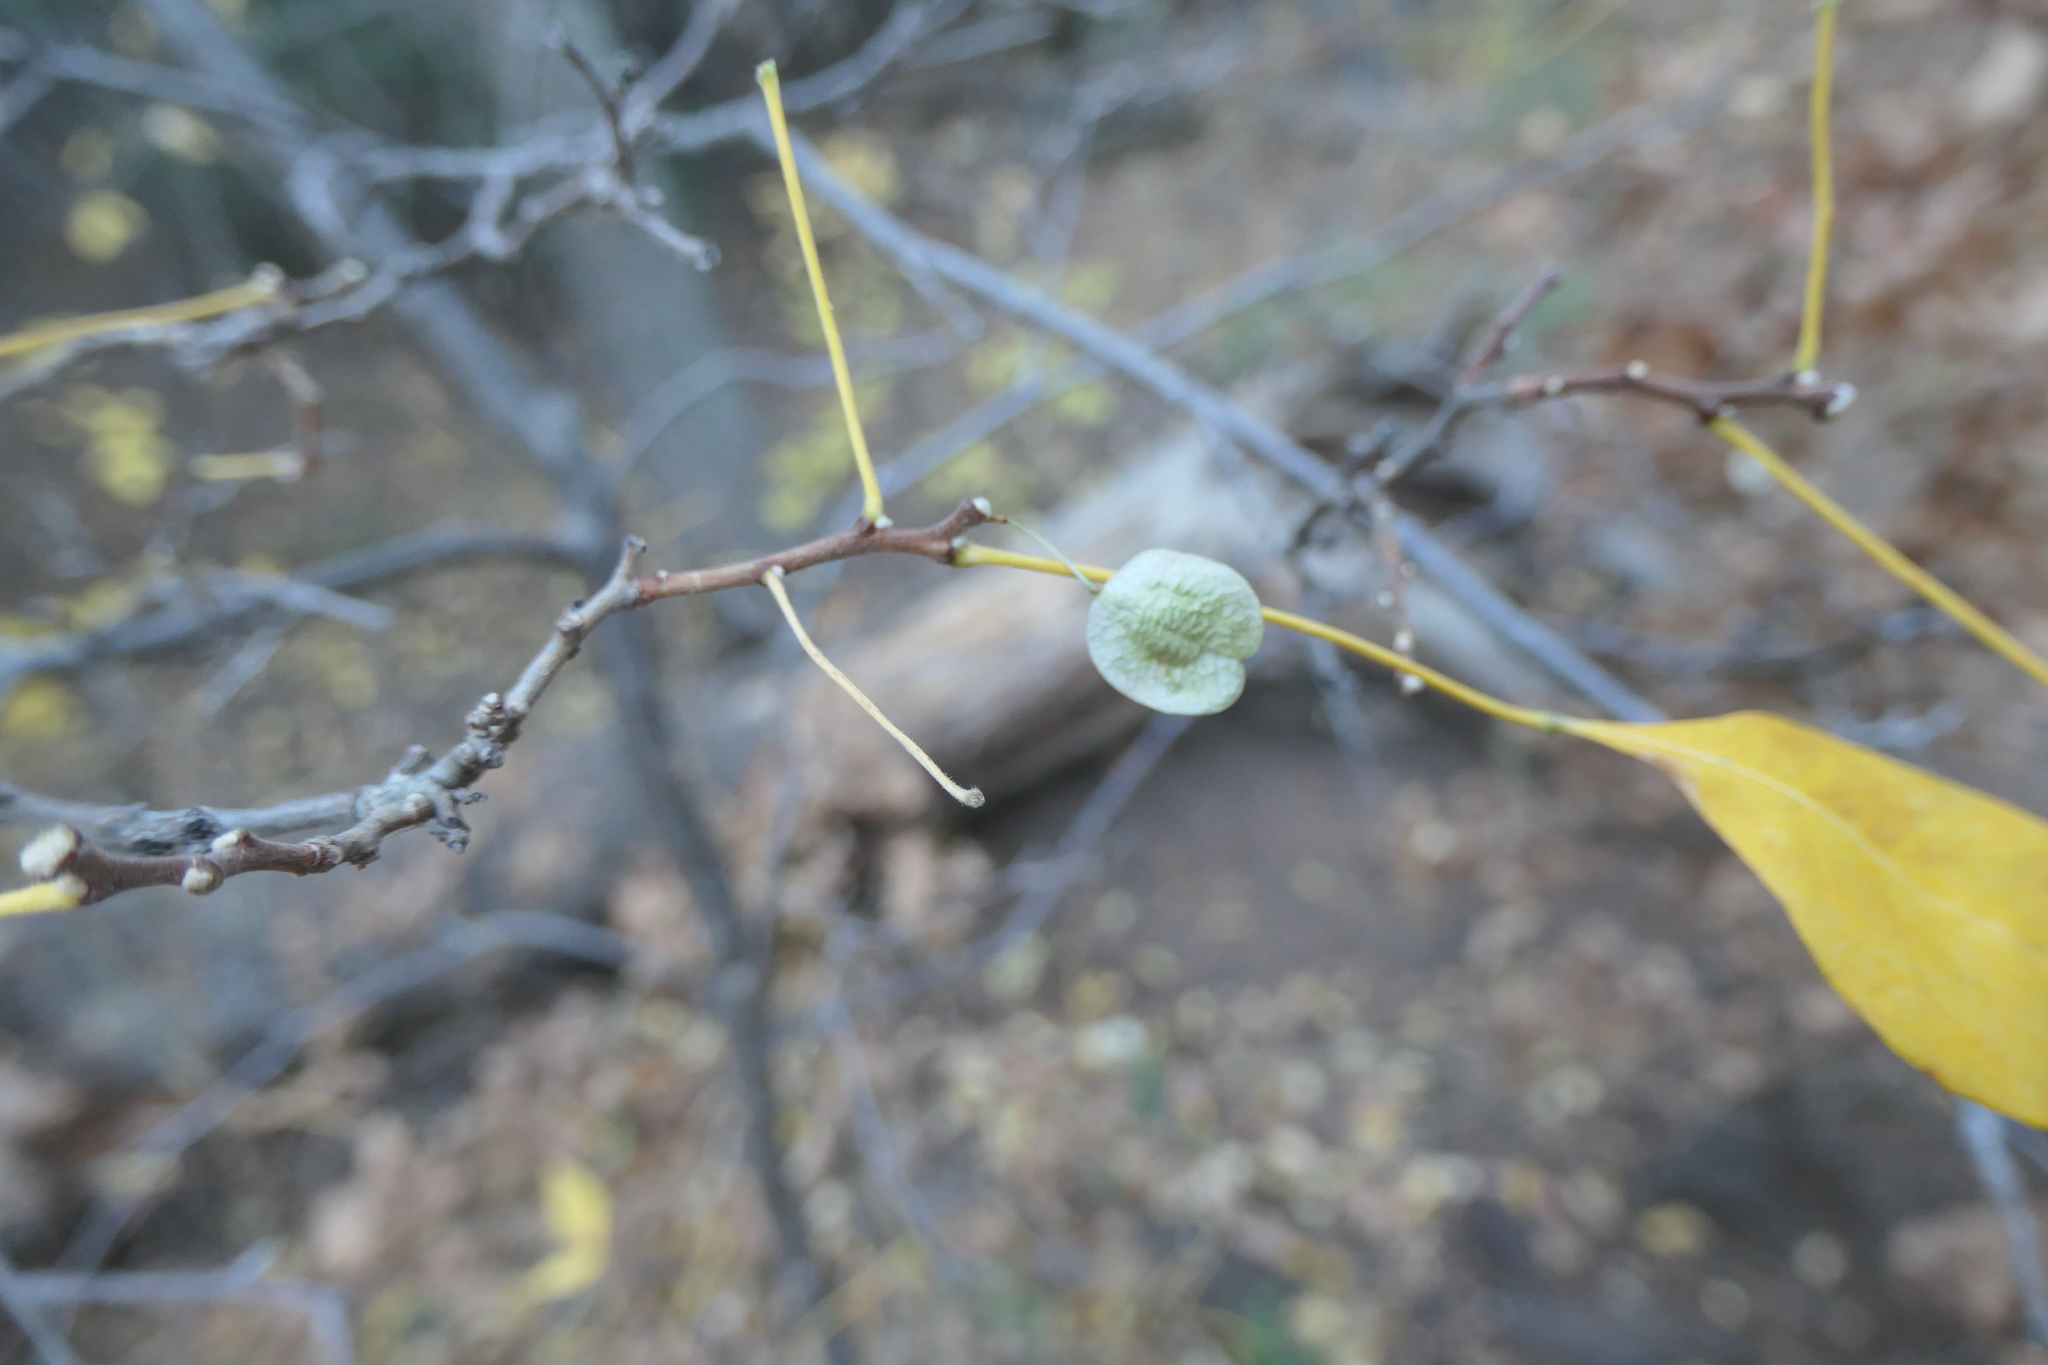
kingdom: Plantae
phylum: Tracheophyta
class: Magnoliopsida
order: Sapindales
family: Rutaceae
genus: Ptelea
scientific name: Ptelea trifoliata
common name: Common hop-tree
